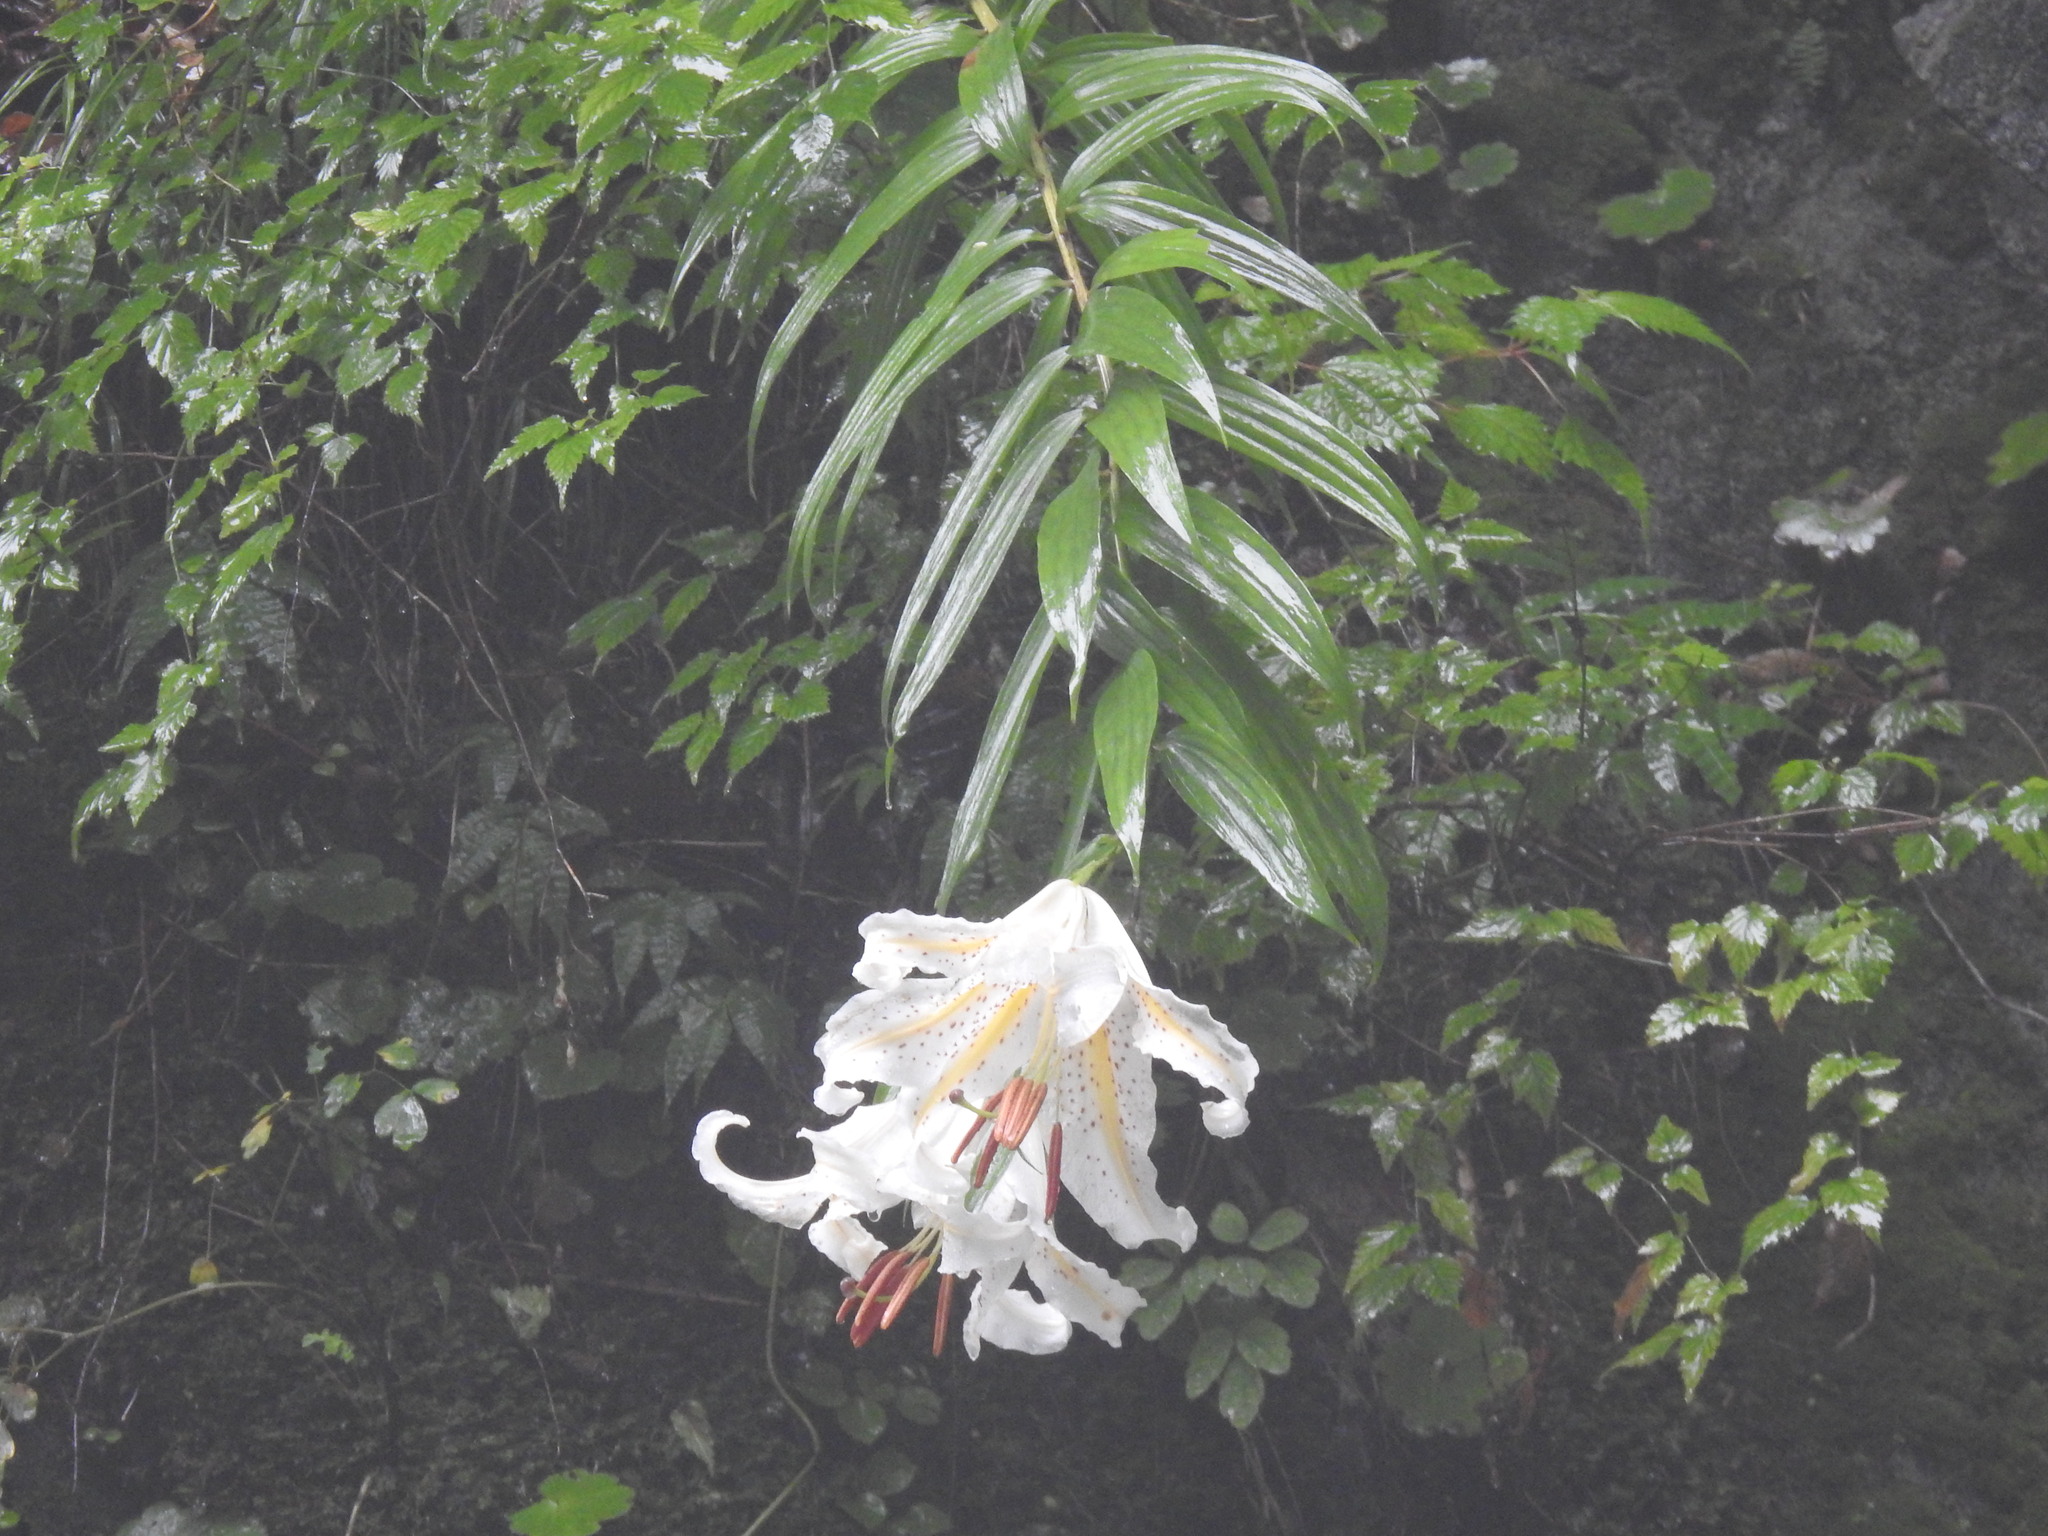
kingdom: Plantae
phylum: Tracheophyta
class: Liliopsida
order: Liliales
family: Liliaceae
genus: Lilium
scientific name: Lilium auratum
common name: Golden-ray lily
